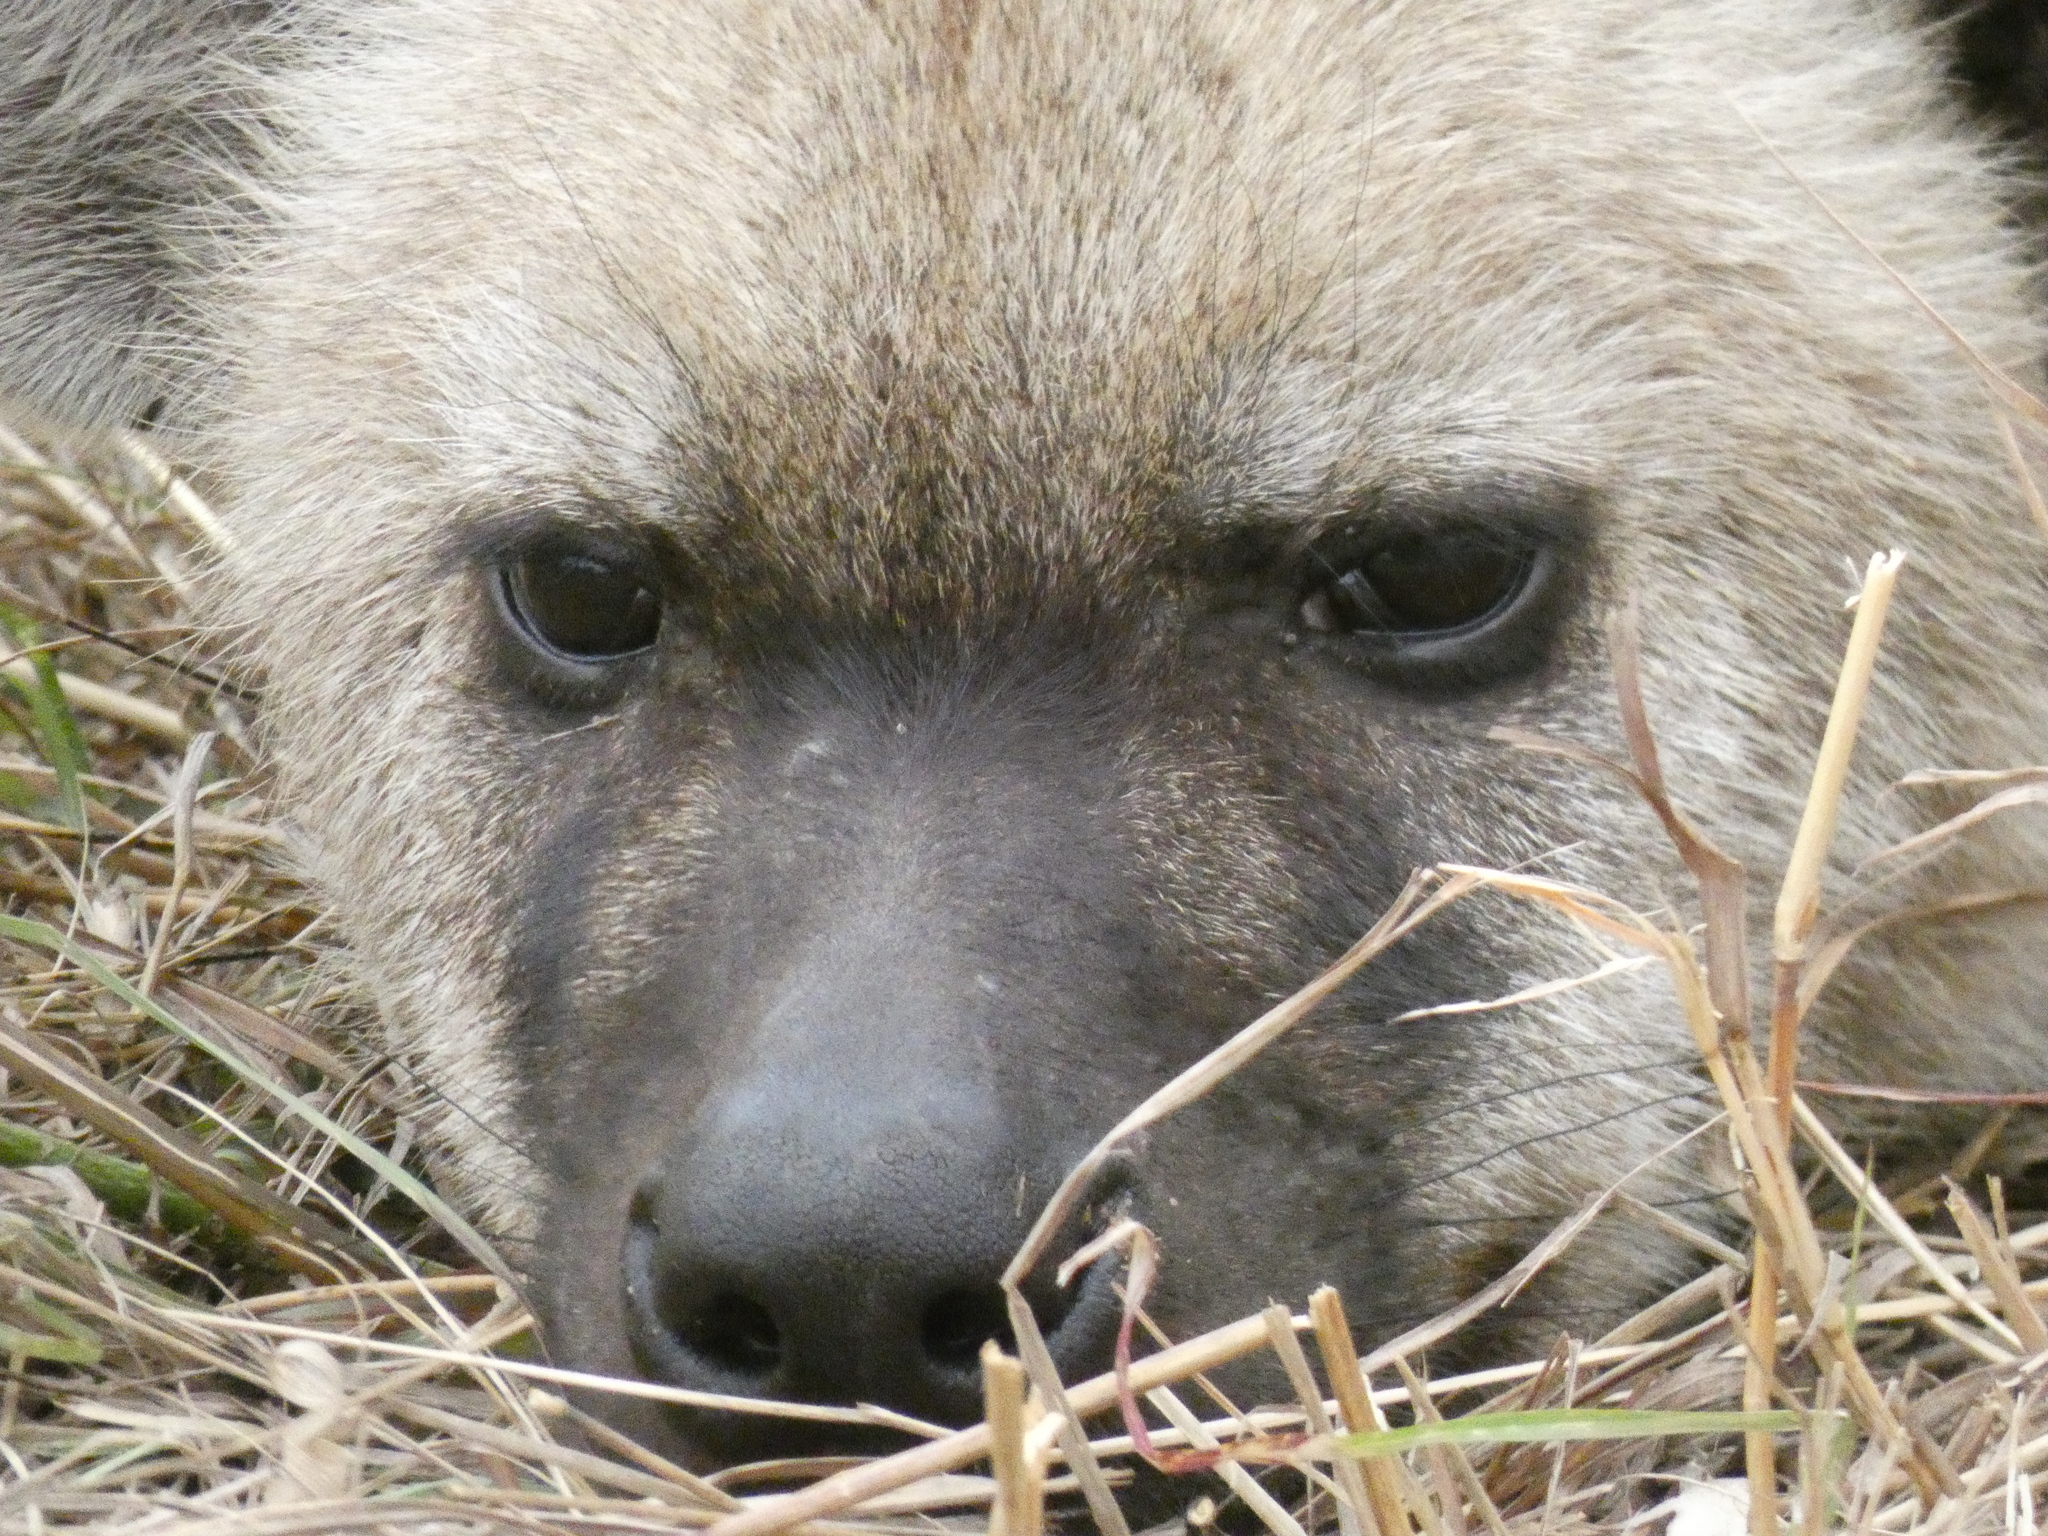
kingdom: Animalia
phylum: Chordata
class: Mammalia
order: Carnivora
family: Hyaenidae
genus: Crocuta
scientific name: Crocuta crocuta
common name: Spotted hyaena
